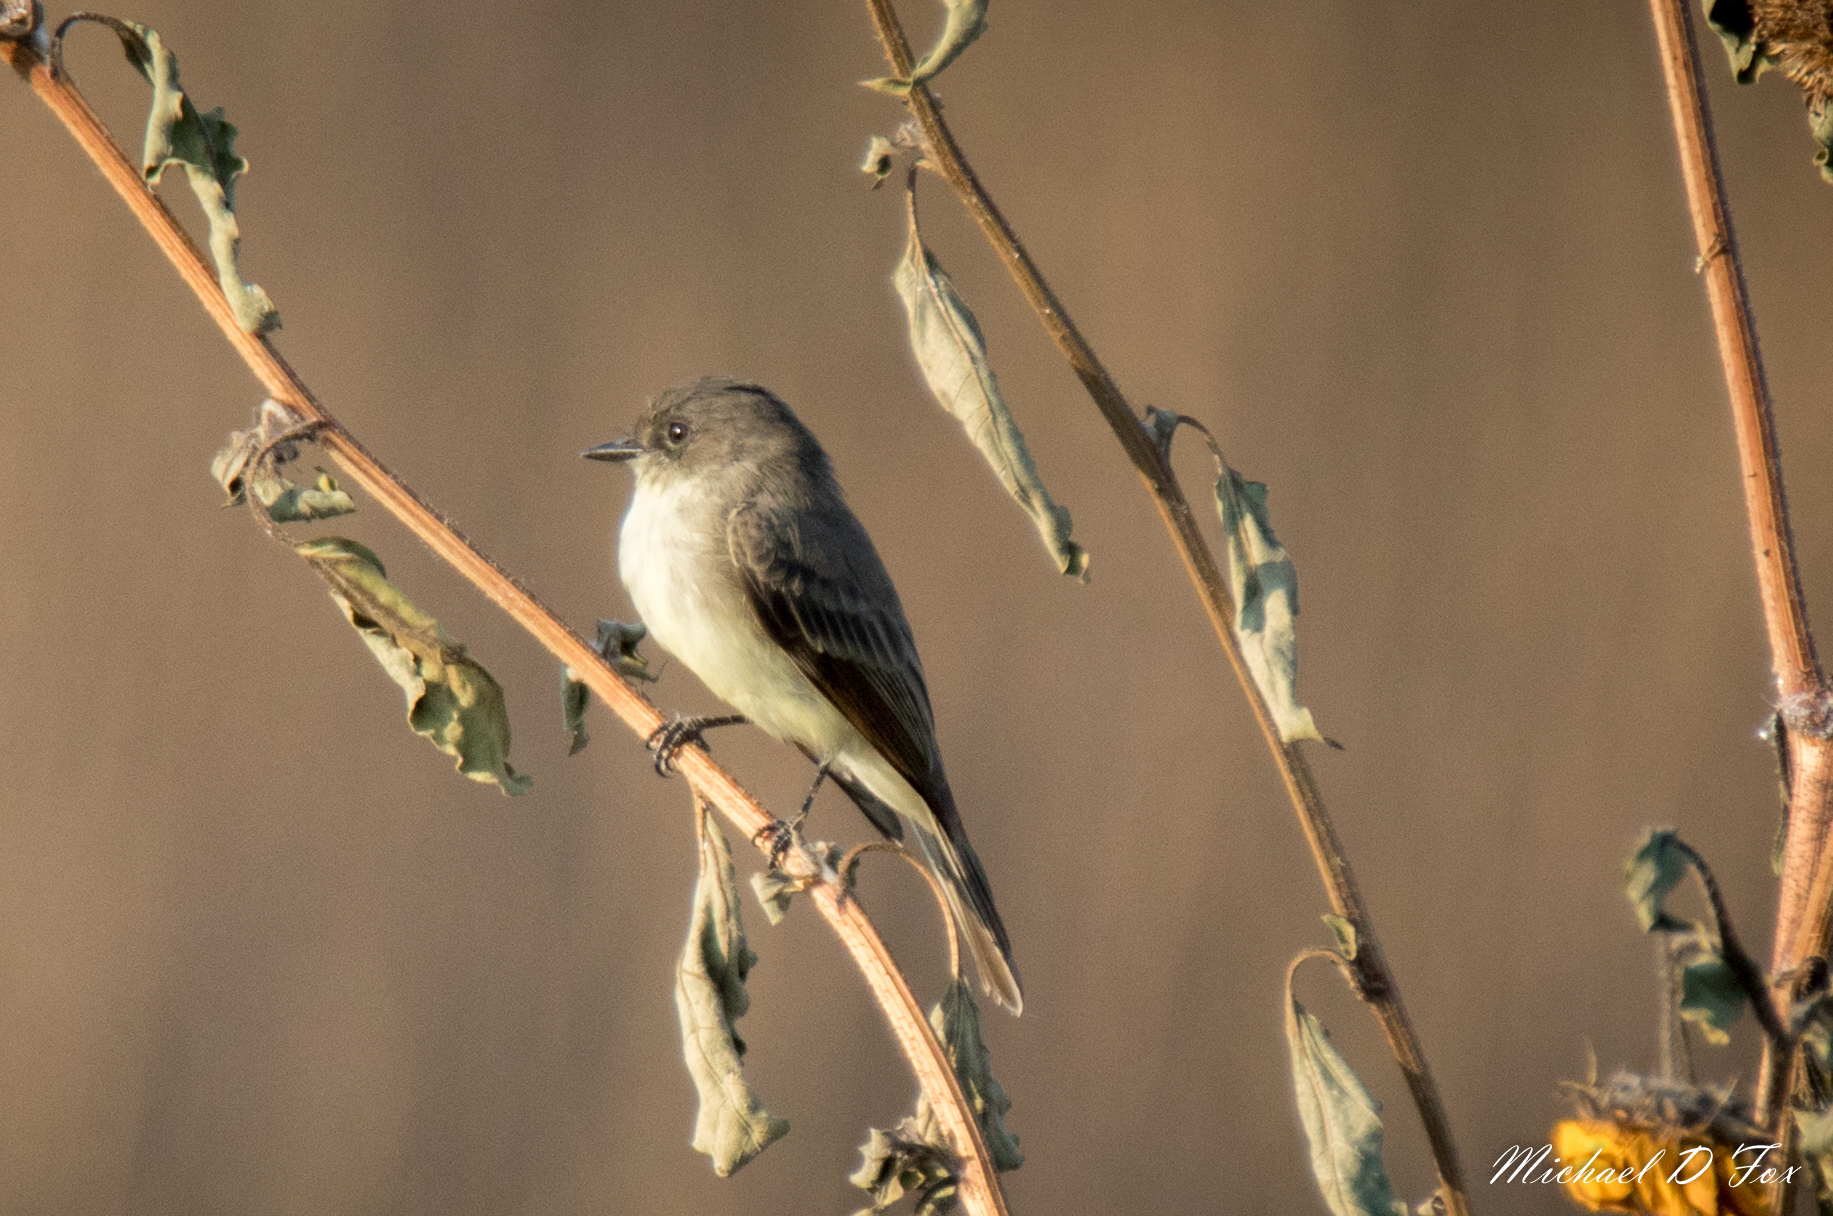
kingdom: Animalia
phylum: Chordata
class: Aves
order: Passeriformes
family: Tyrannidae
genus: Sayornis
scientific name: Sayornis phoebe
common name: Eastern phoebe
